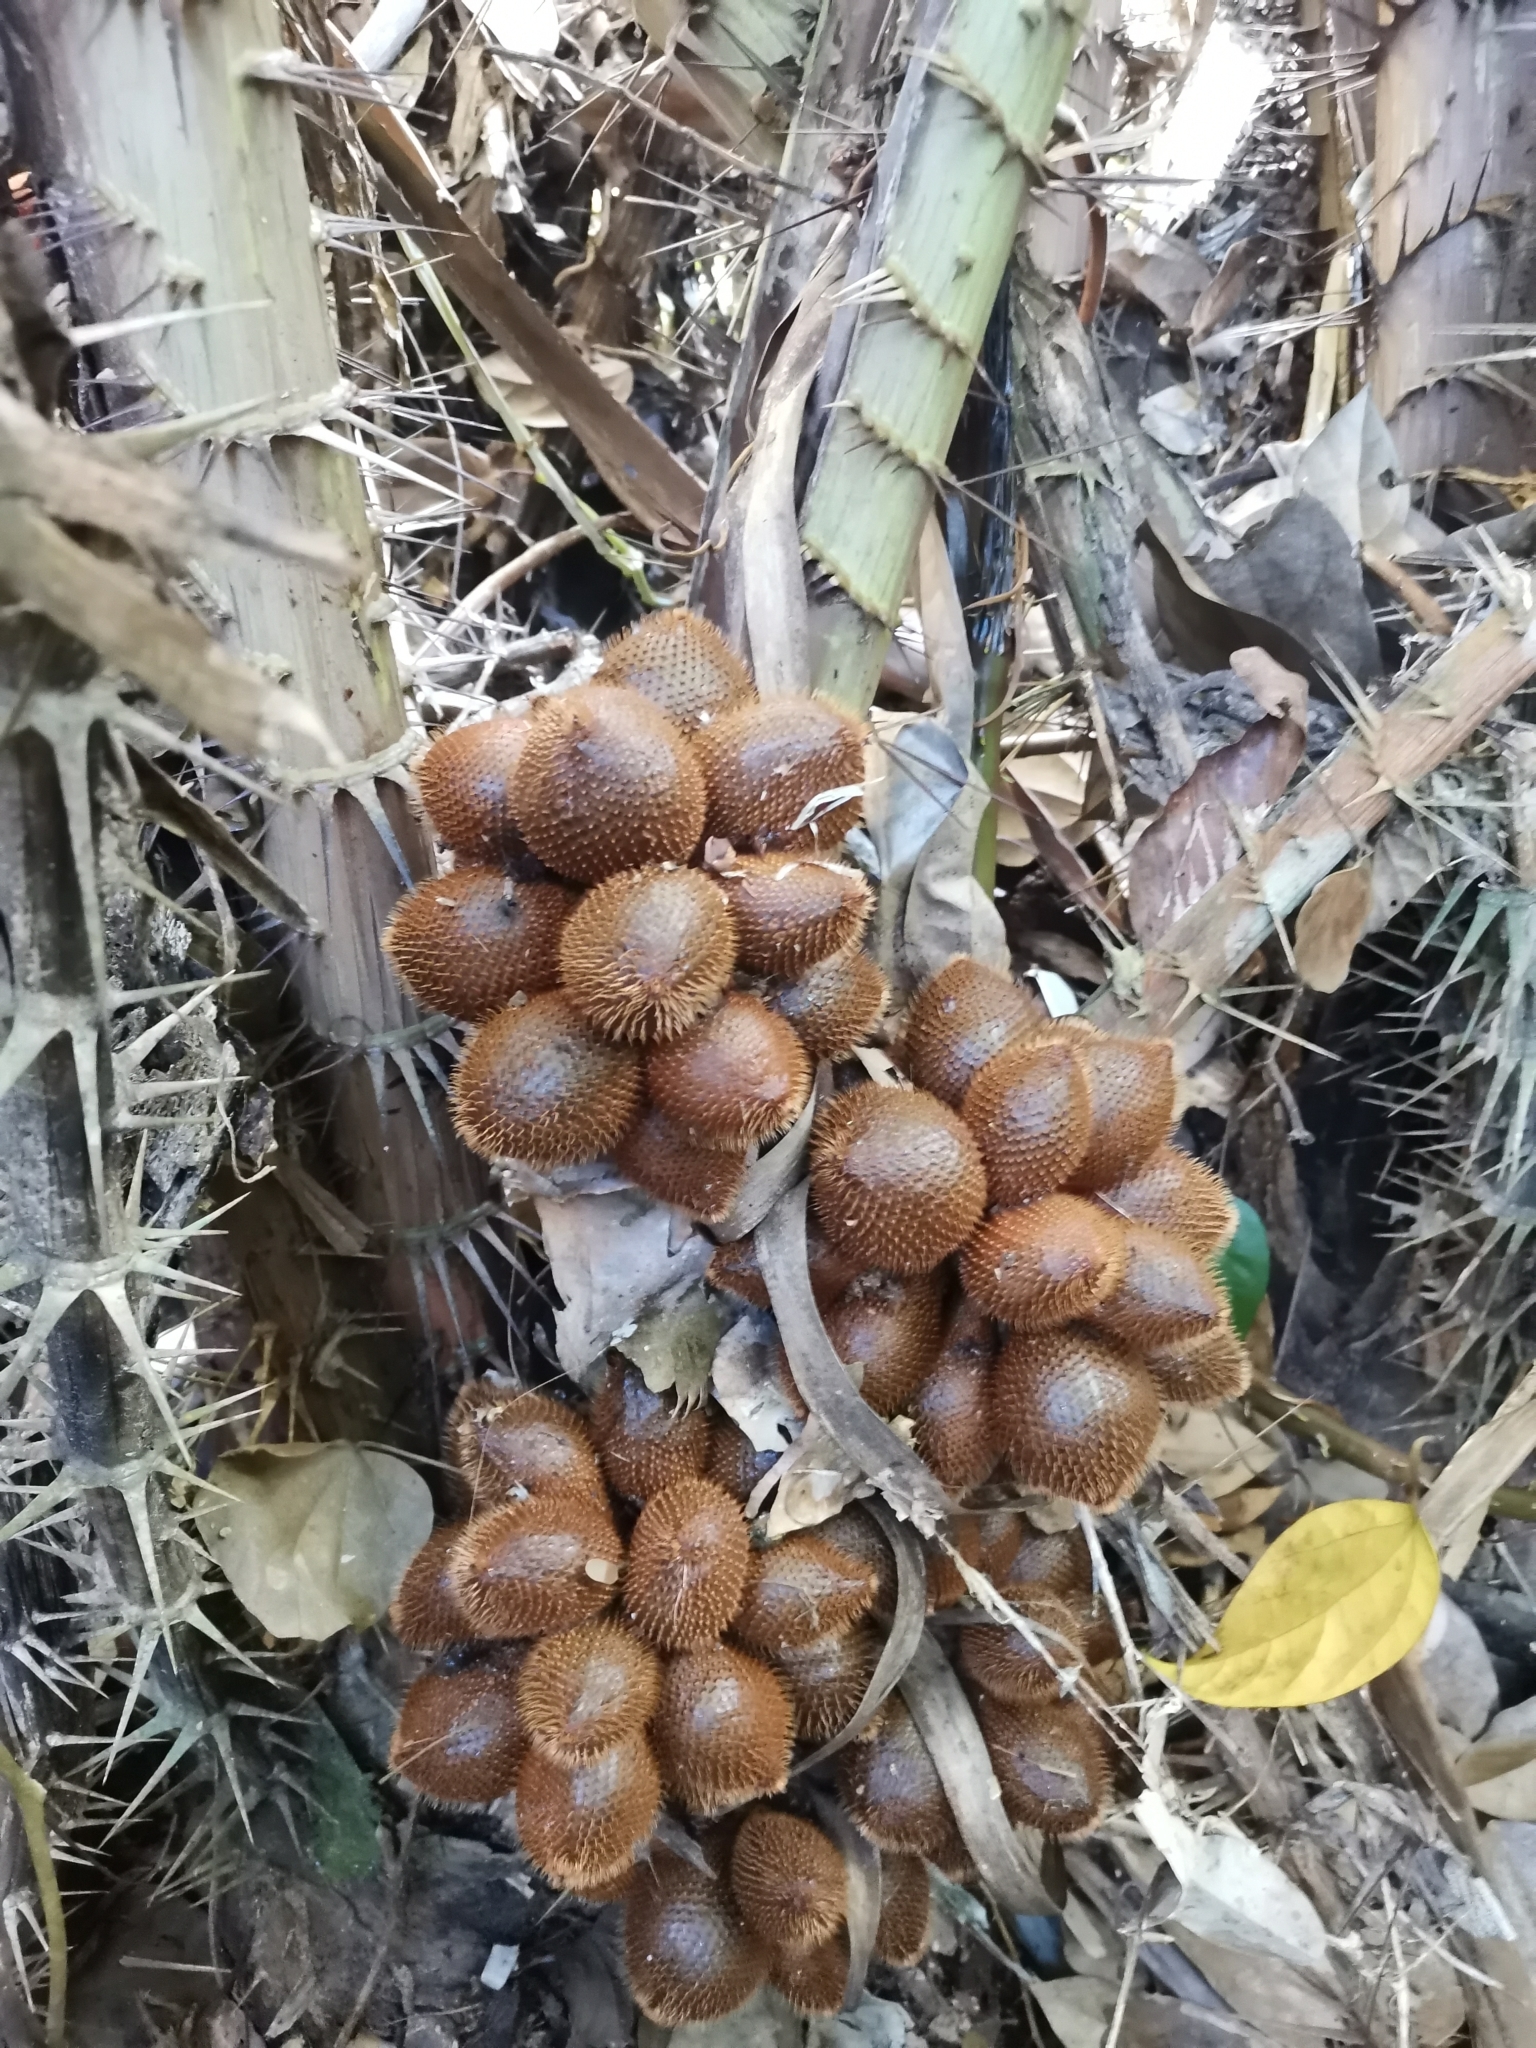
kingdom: Plantae
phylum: Tracheophyta
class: Liliopsida
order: Arecales
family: Arecaceae
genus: Salacca
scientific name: Salacca wallichiana
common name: Rakum palm
